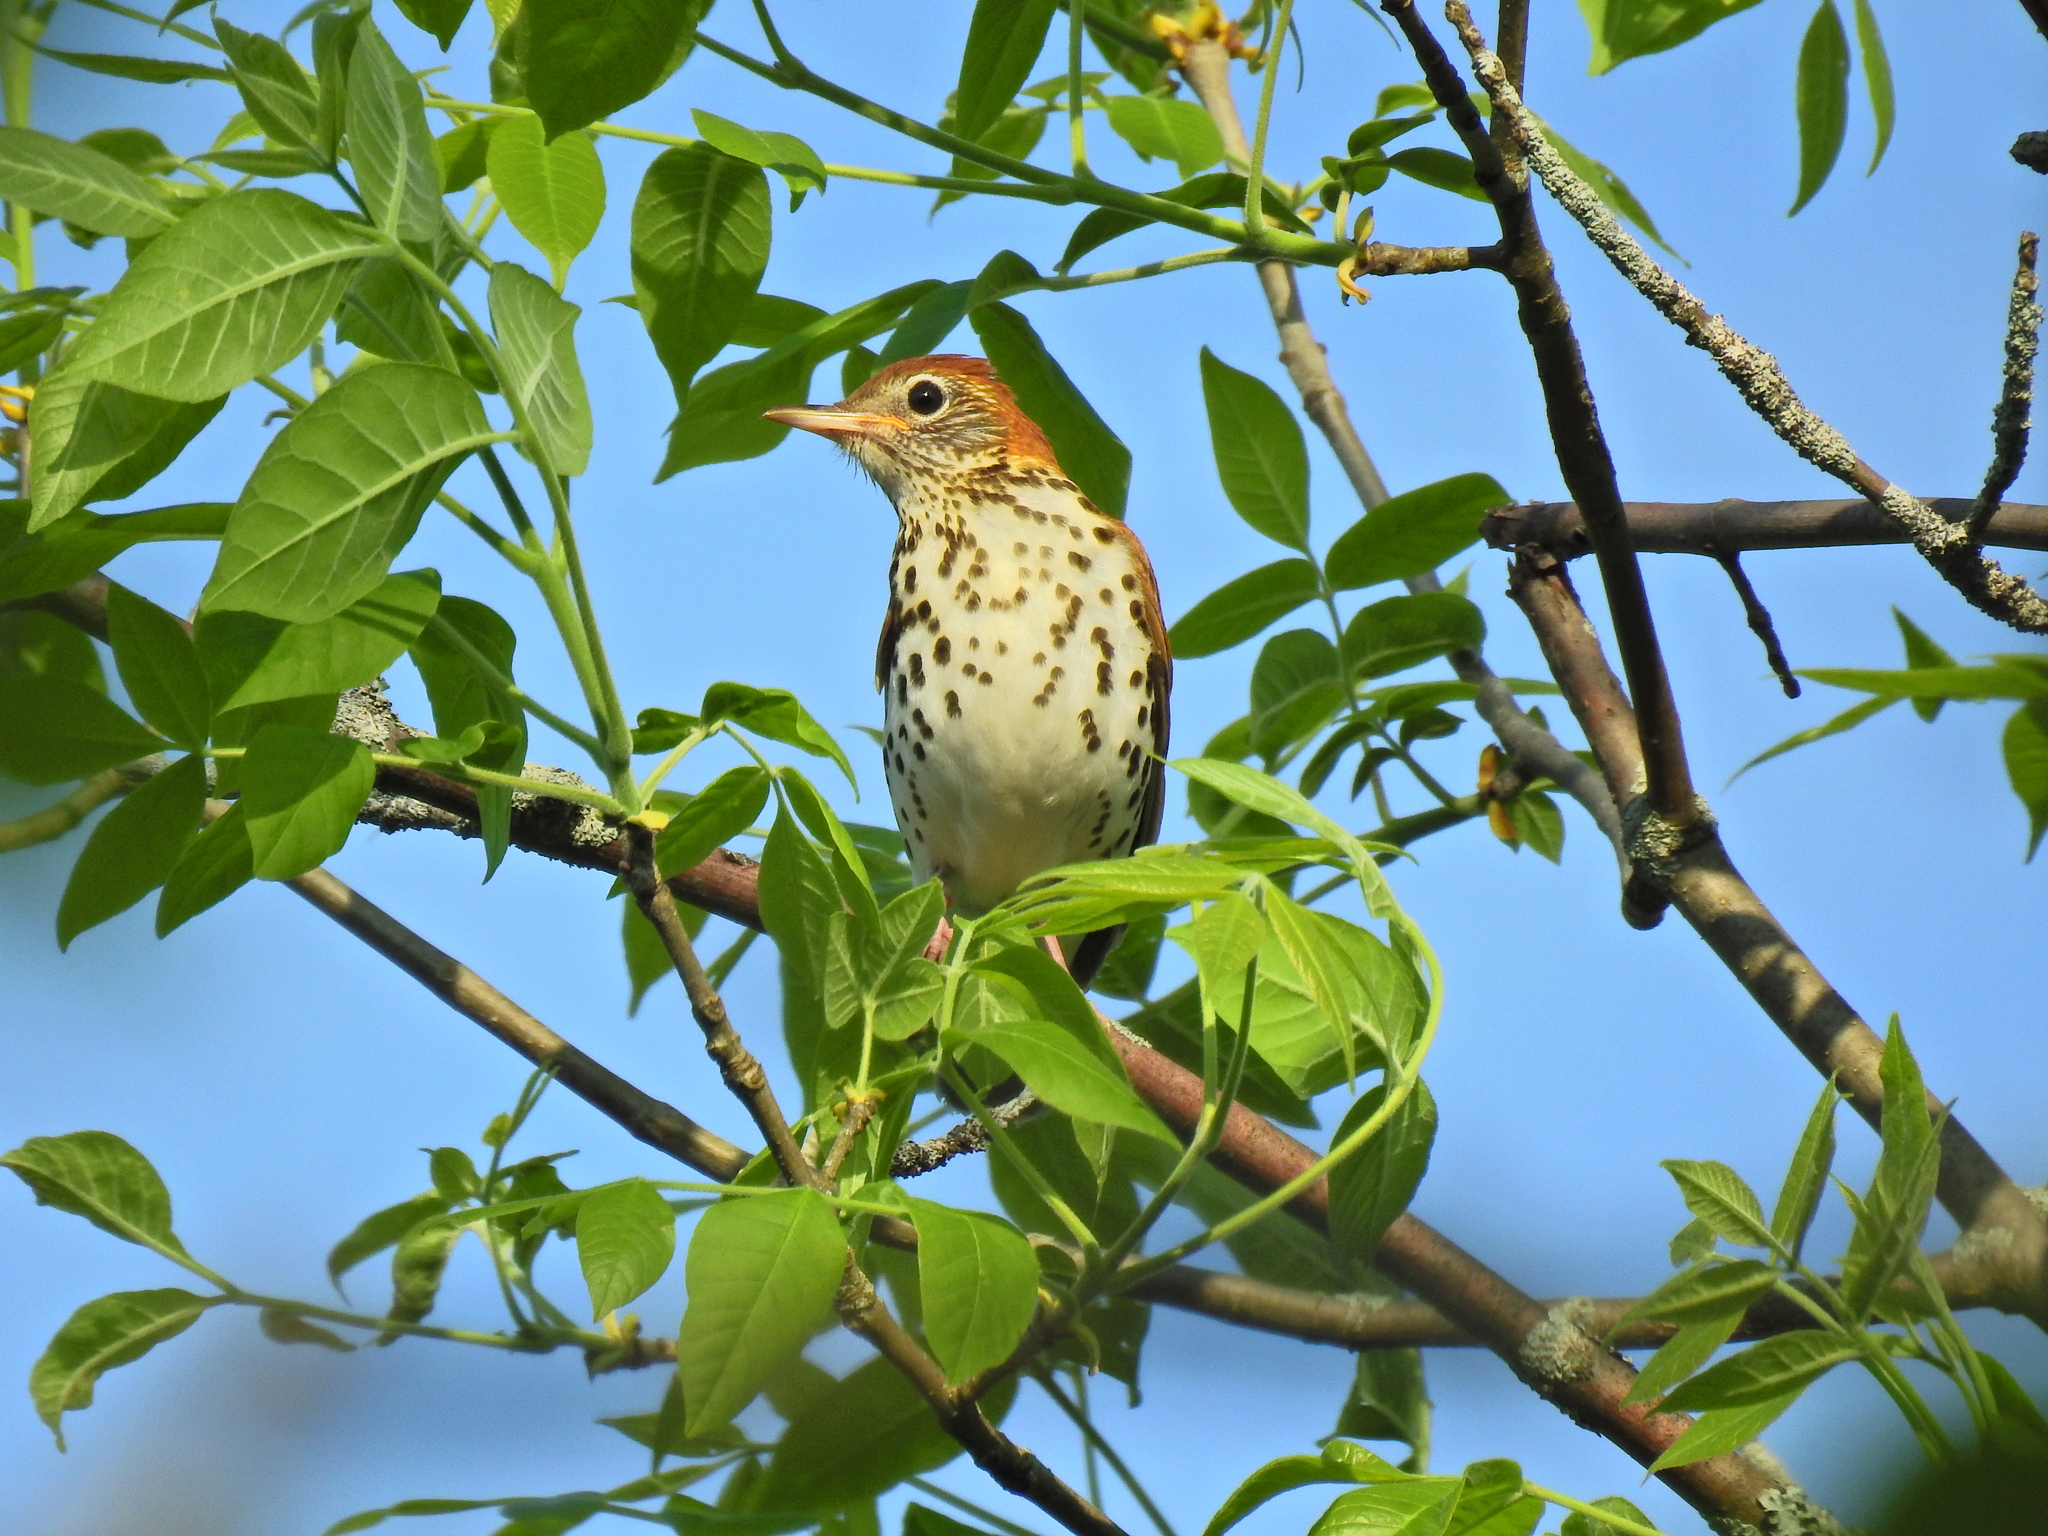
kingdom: Animalia
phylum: Chordata
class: Aves
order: Passeriformes
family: Turdidae
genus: Hylocichla
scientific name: Hylocichla mustelina
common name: Wood thrush
